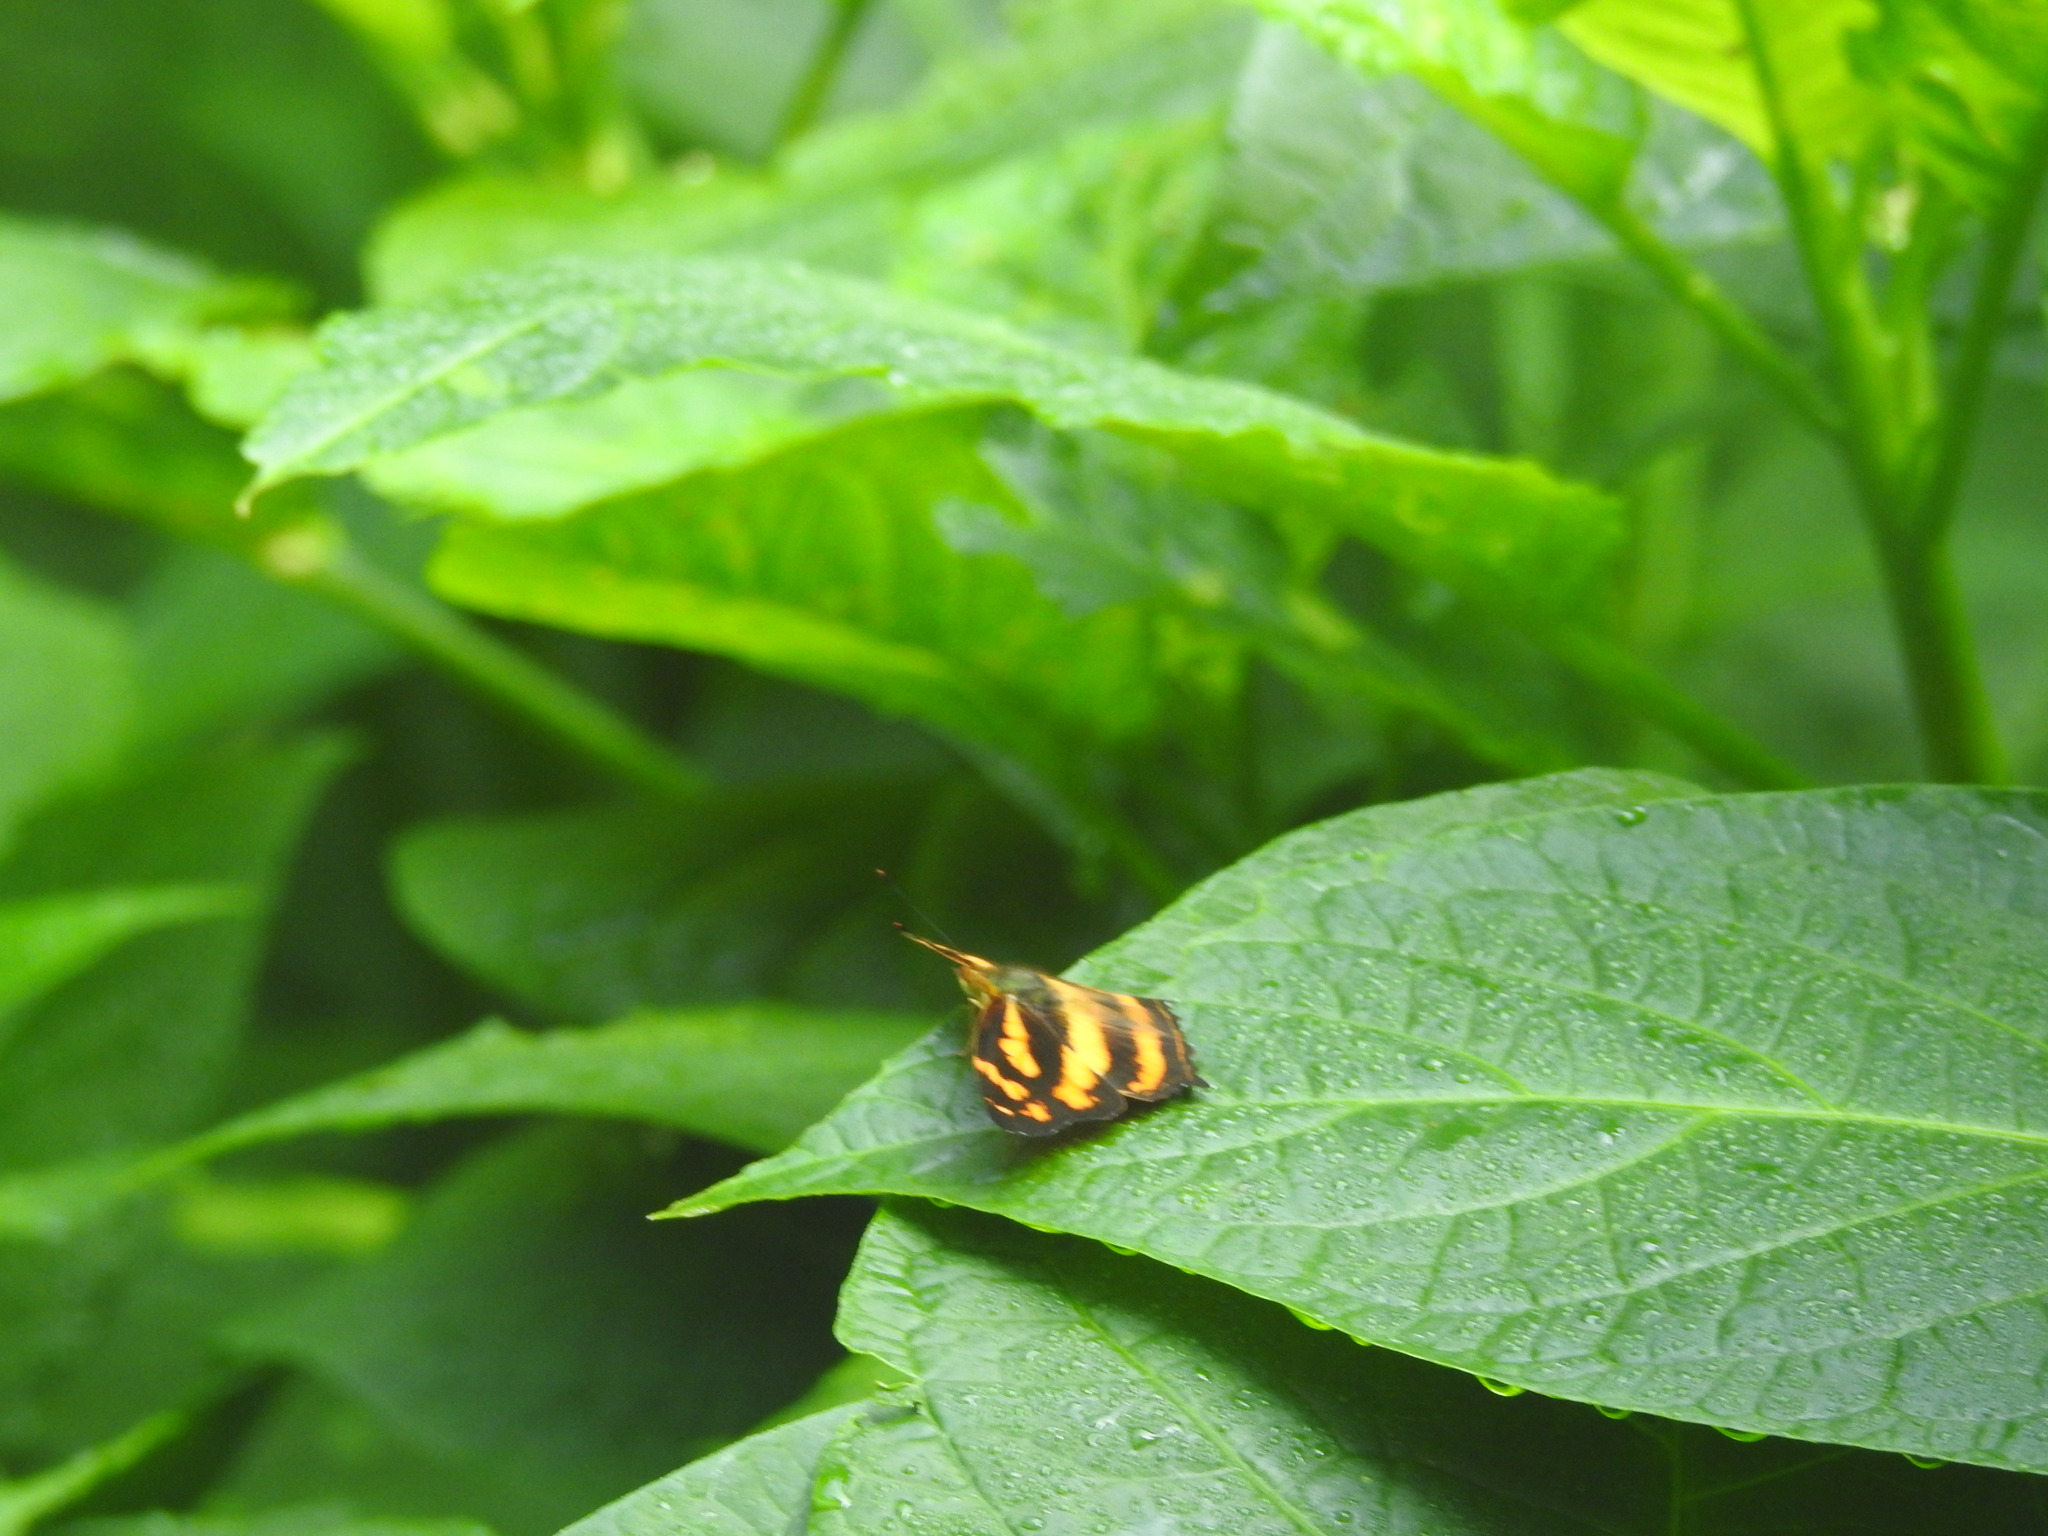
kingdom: Animalia
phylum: Arthropoda
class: Insecta
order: Lepidoptera
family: Nymphalidae
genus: Symbrenthia
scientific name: Symbrenthia hypselis
